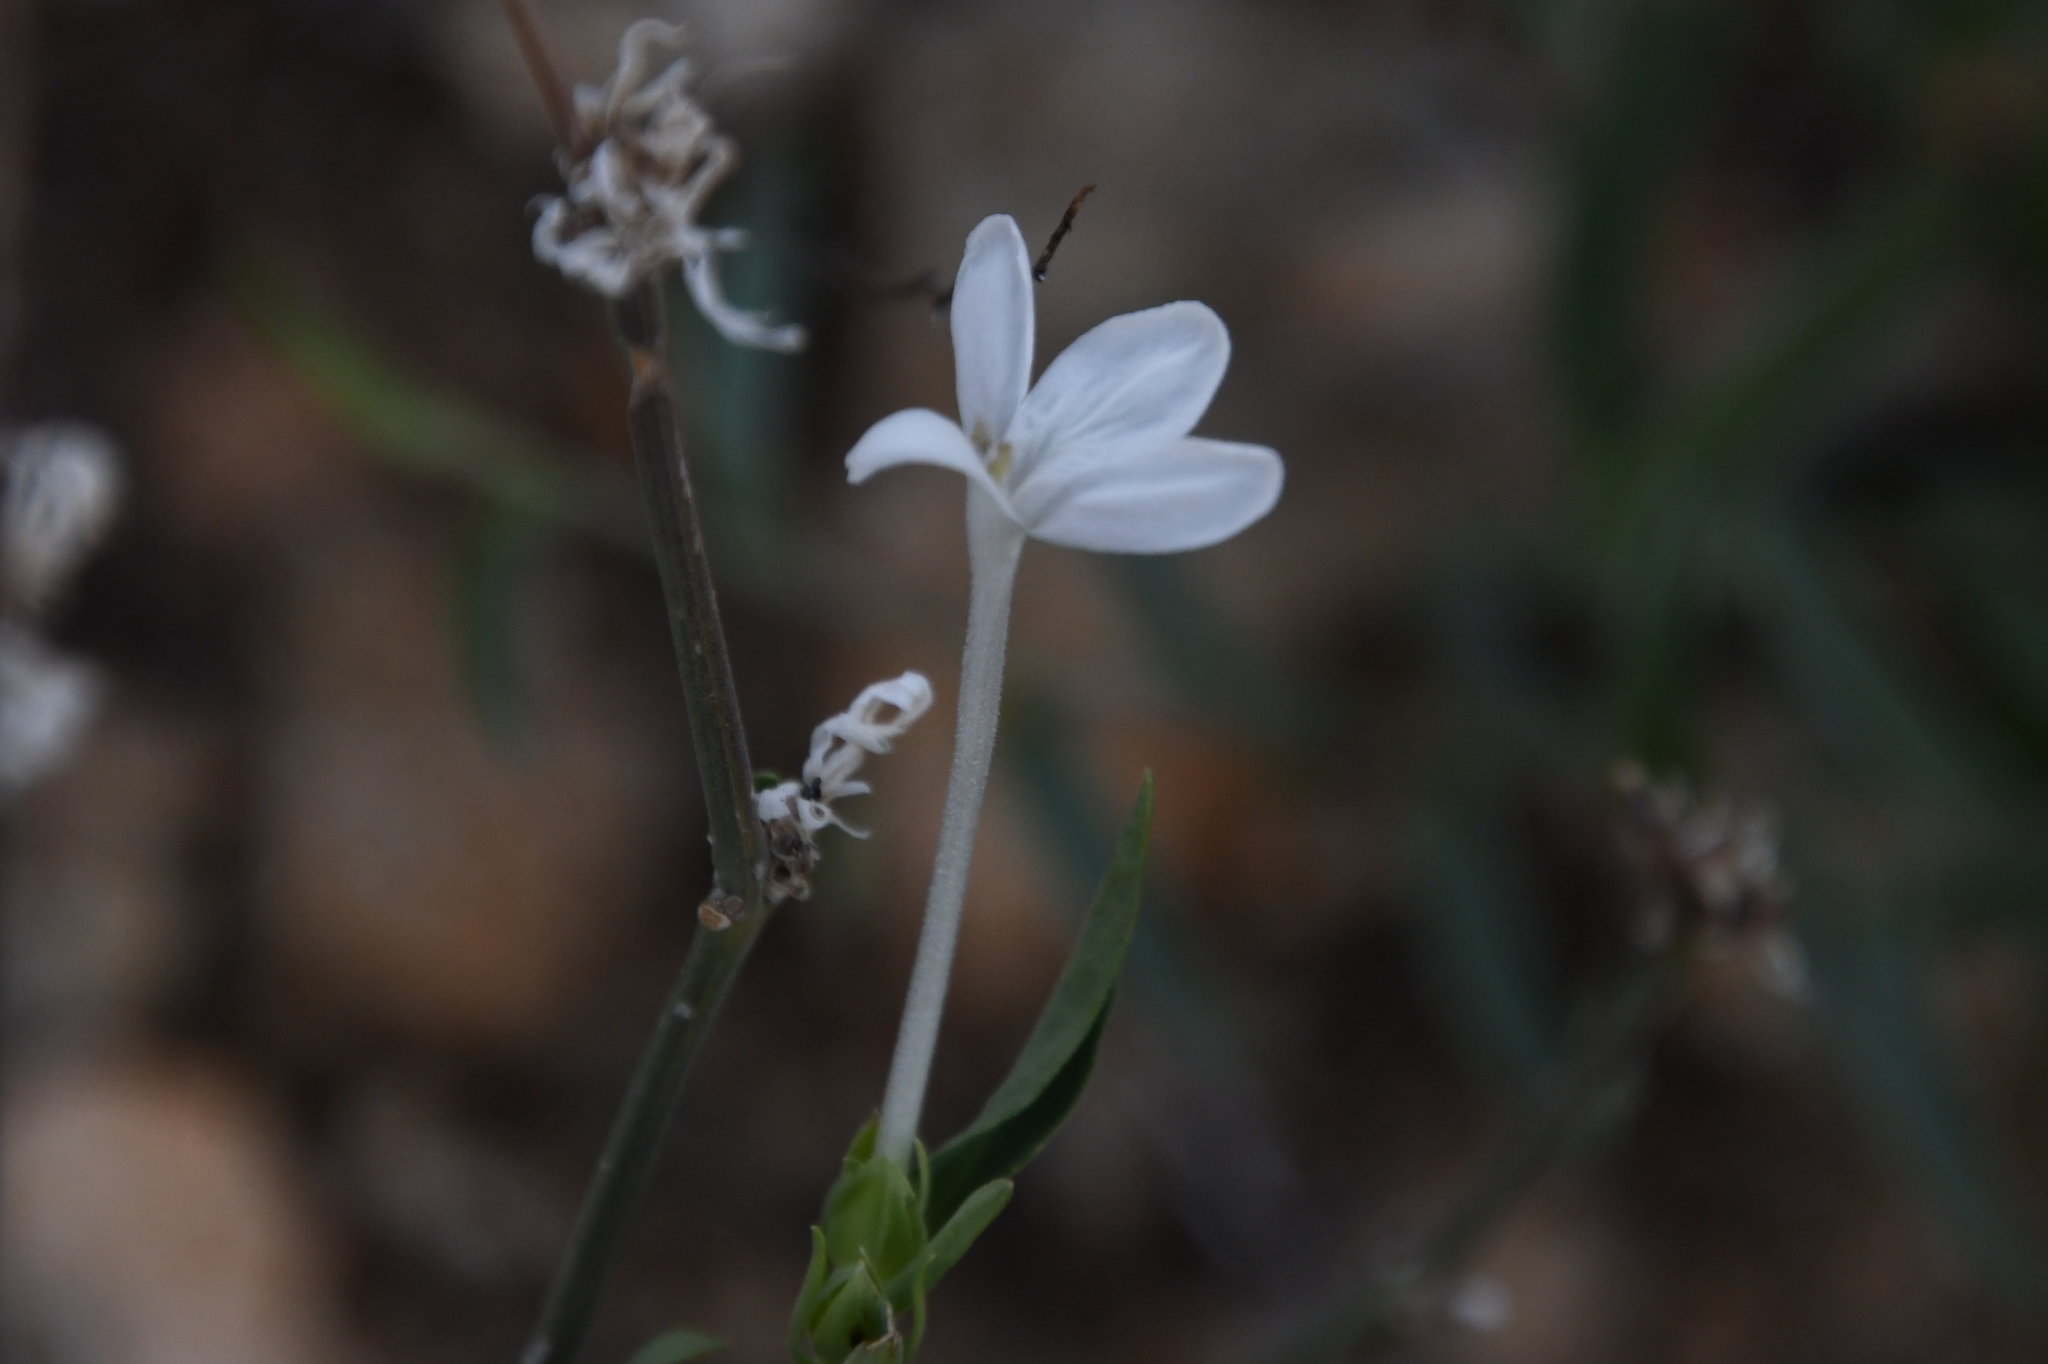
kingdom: Plantae
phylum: Tracheophyta
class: Magnoliopsida
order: Lamiales
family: Acanthaceae
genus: Justicia
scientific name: Justicia longii
